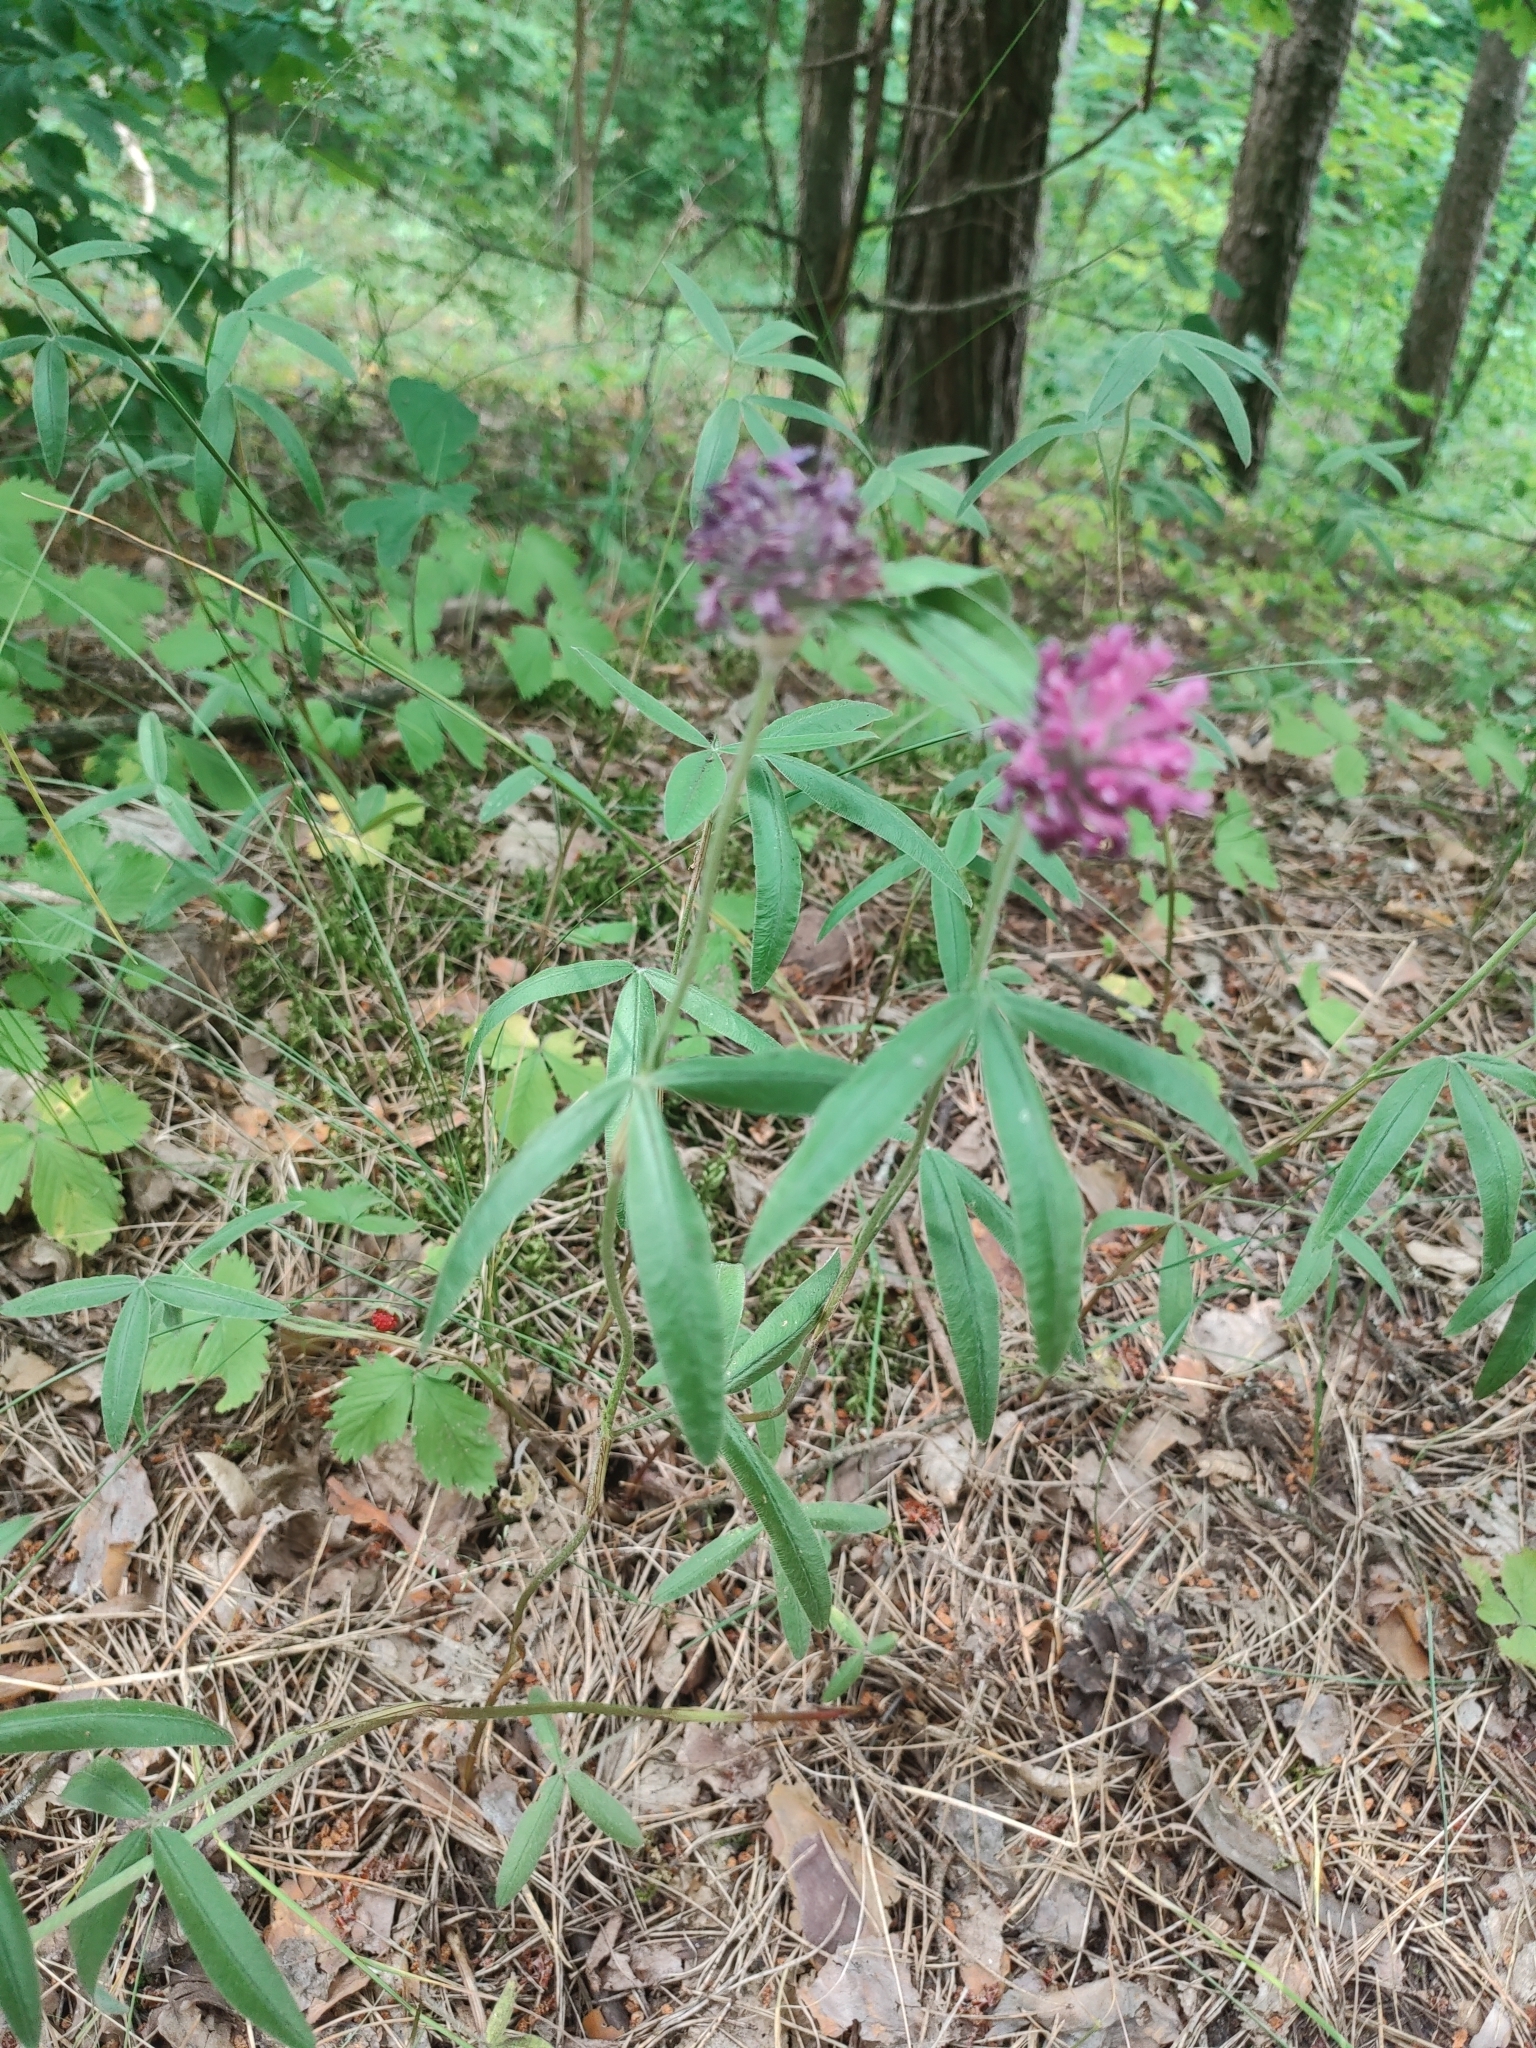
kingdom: Plantae
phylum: Tracheophyta
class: Magnoliopsida
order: Fabales
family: Fabaceae
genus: Trifolium
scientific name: Trifolium alpestre
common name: Owl-head clover
